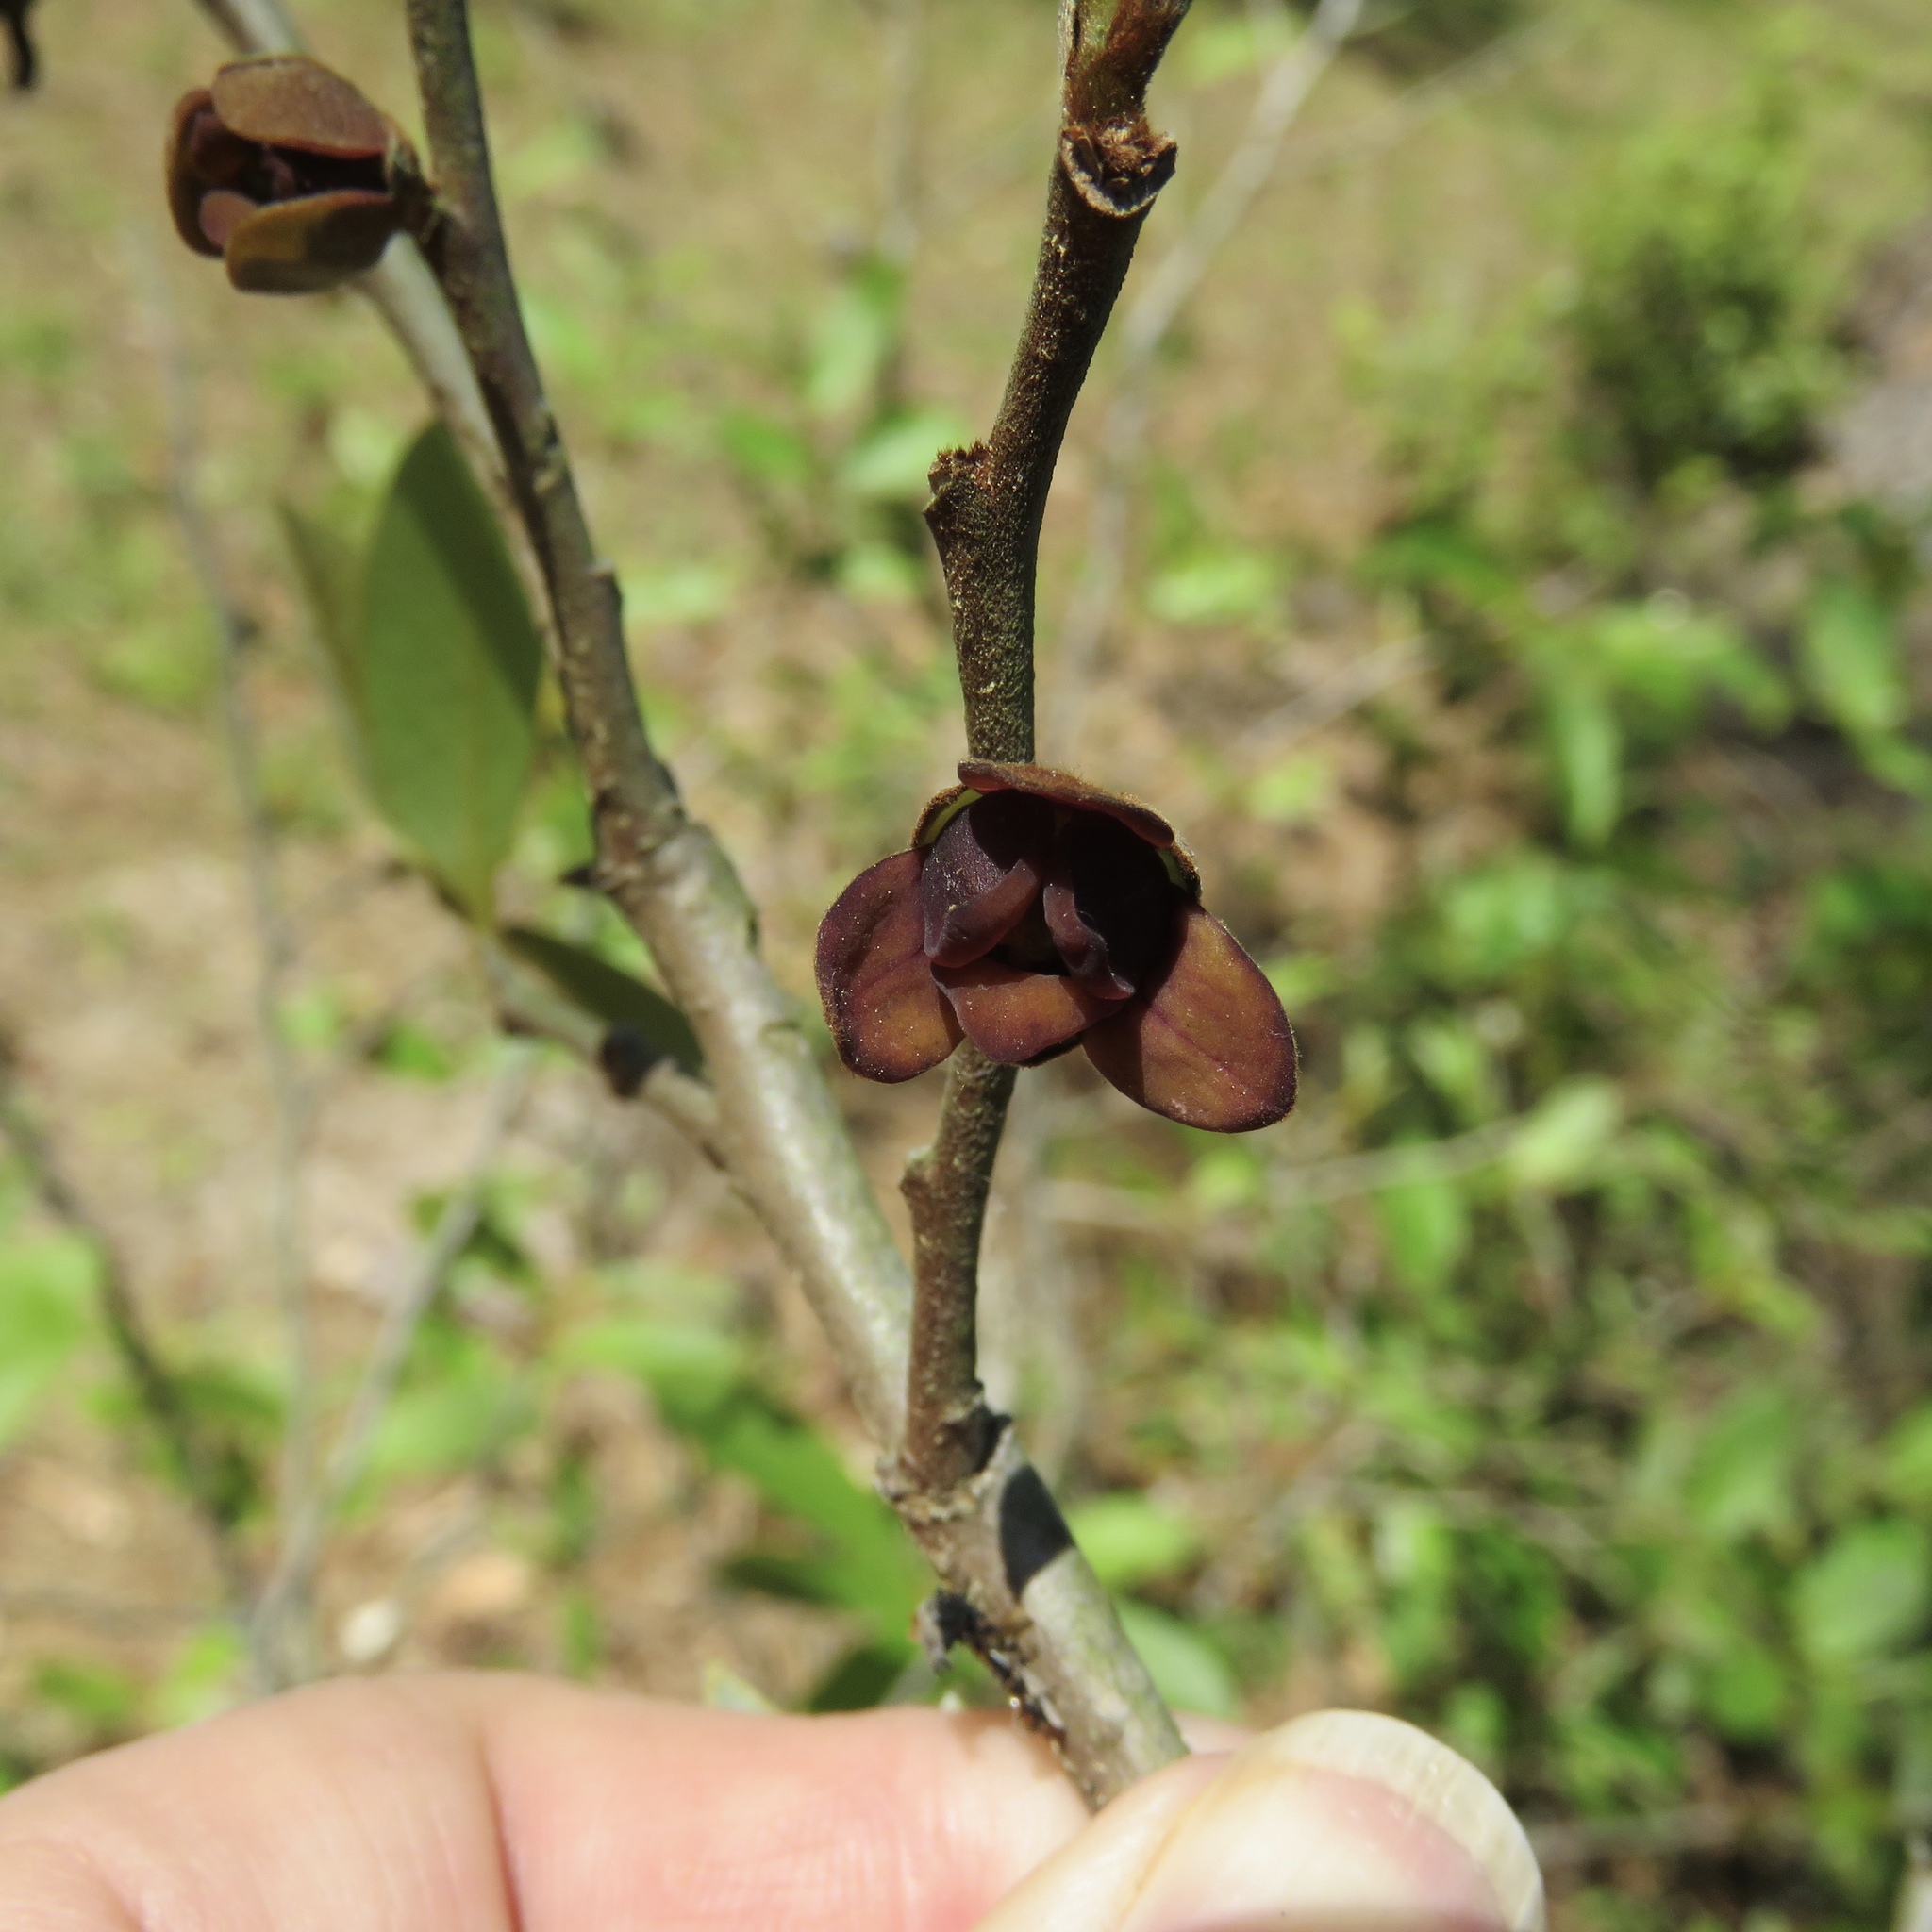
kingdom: Plantae
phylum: Tracheophyta
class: Magnoliopsida
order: Magnoliales
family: Annonaceae
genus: Asimina
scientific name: Asimina parviflora
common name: Dwarf pawpaw
